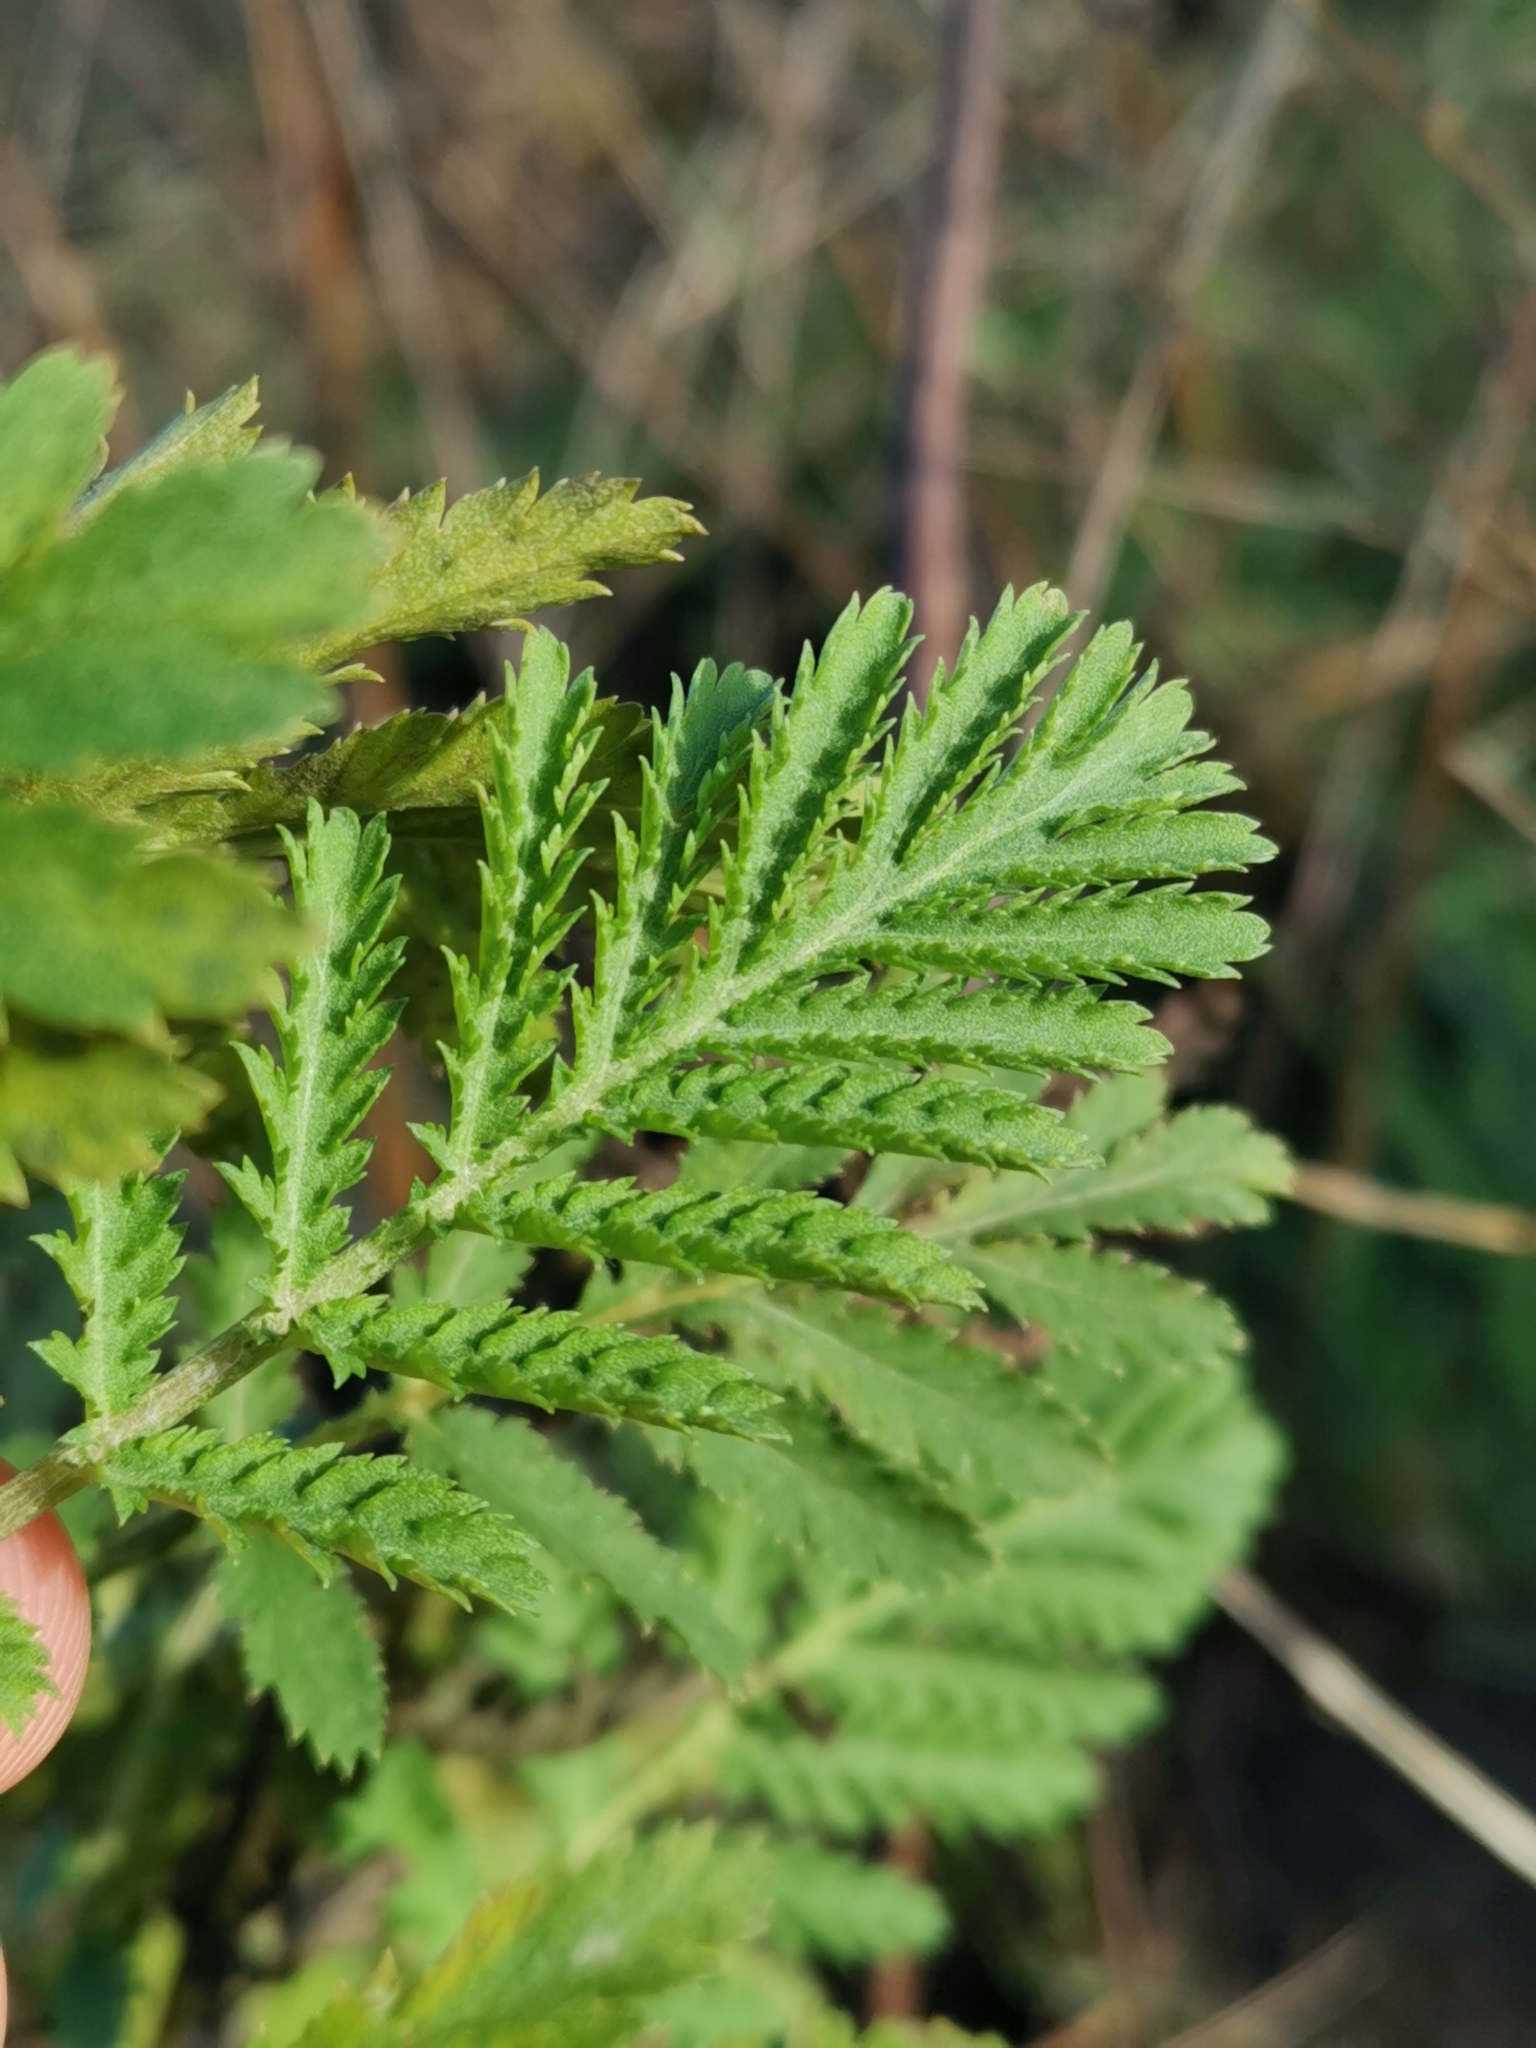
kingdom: Plantae
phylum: Tracheophyta
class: Magnoliopsida
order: Asterales
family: Asteraceae
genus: Tanacetum
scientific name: Tanacetum vulgare
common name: Common tansy
